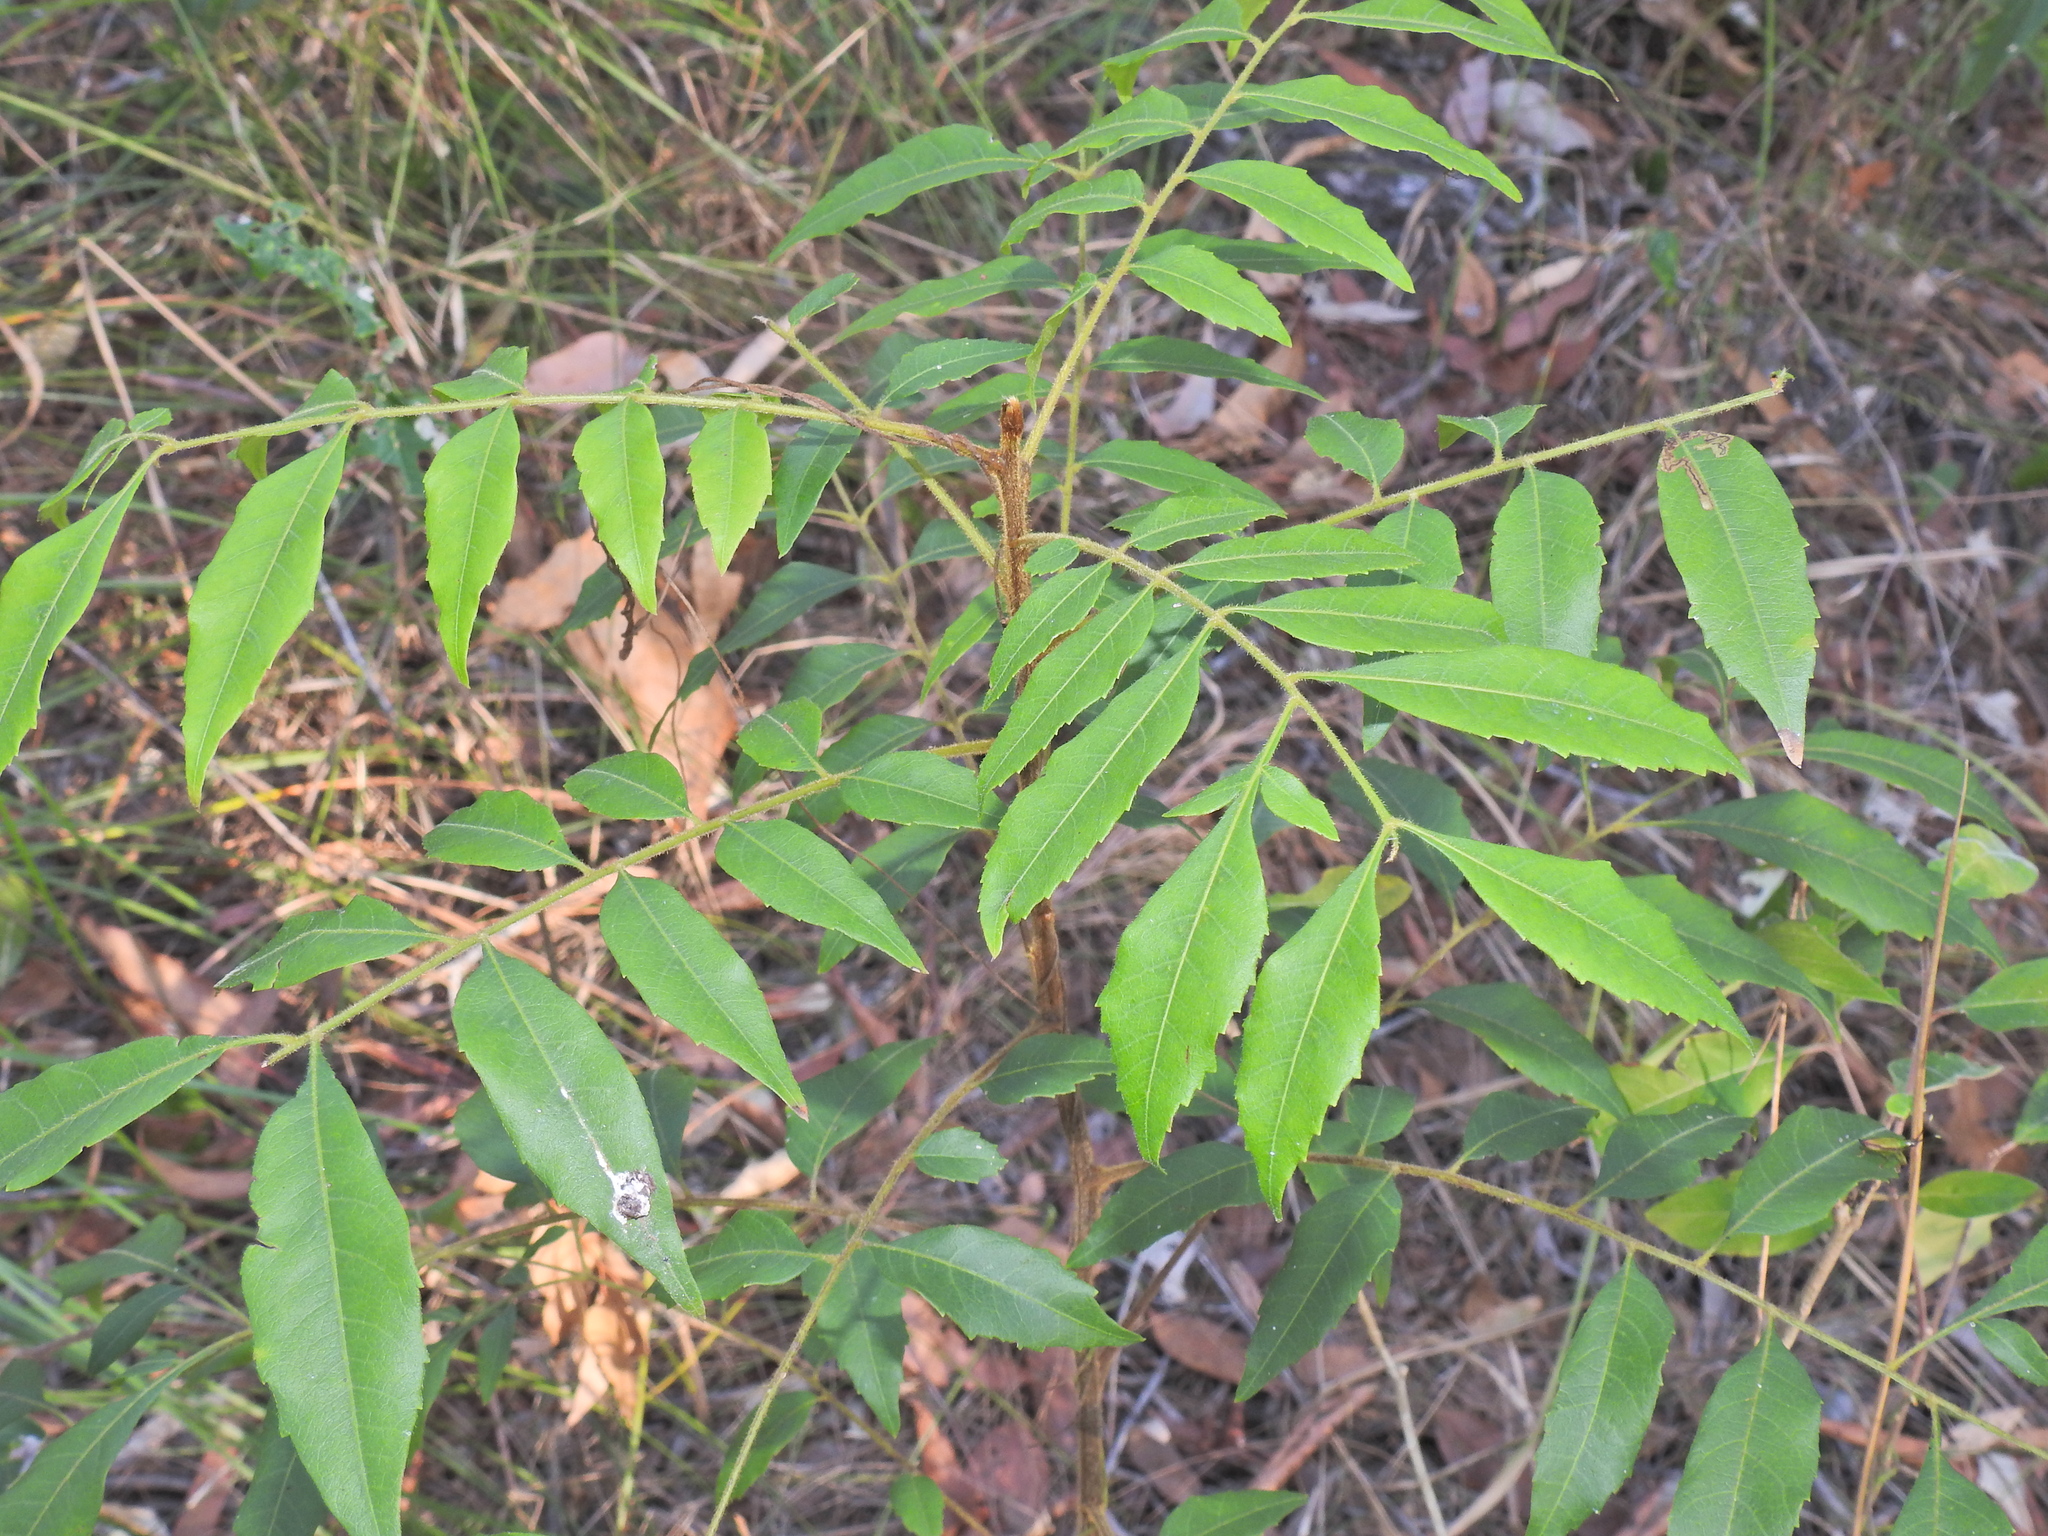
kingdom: Plantae
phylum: Tracheophyta
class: Magnoliopsida
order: Sapindales
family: Sapindaceae
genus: Jagera
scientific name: Jagera pseudorhus
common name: Fern-leaf-tamarind
